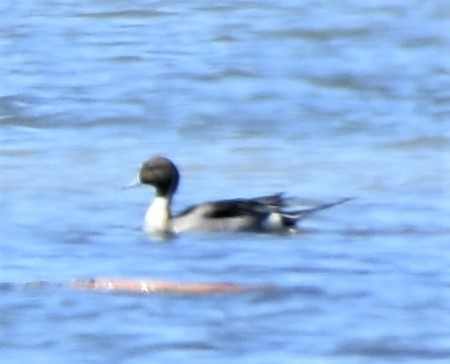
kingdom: Animalia
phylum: Chordata
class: Aves
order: Anseriformes
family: Anatidae
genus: Anas
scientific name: Anas acuta
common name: Northern pintail
